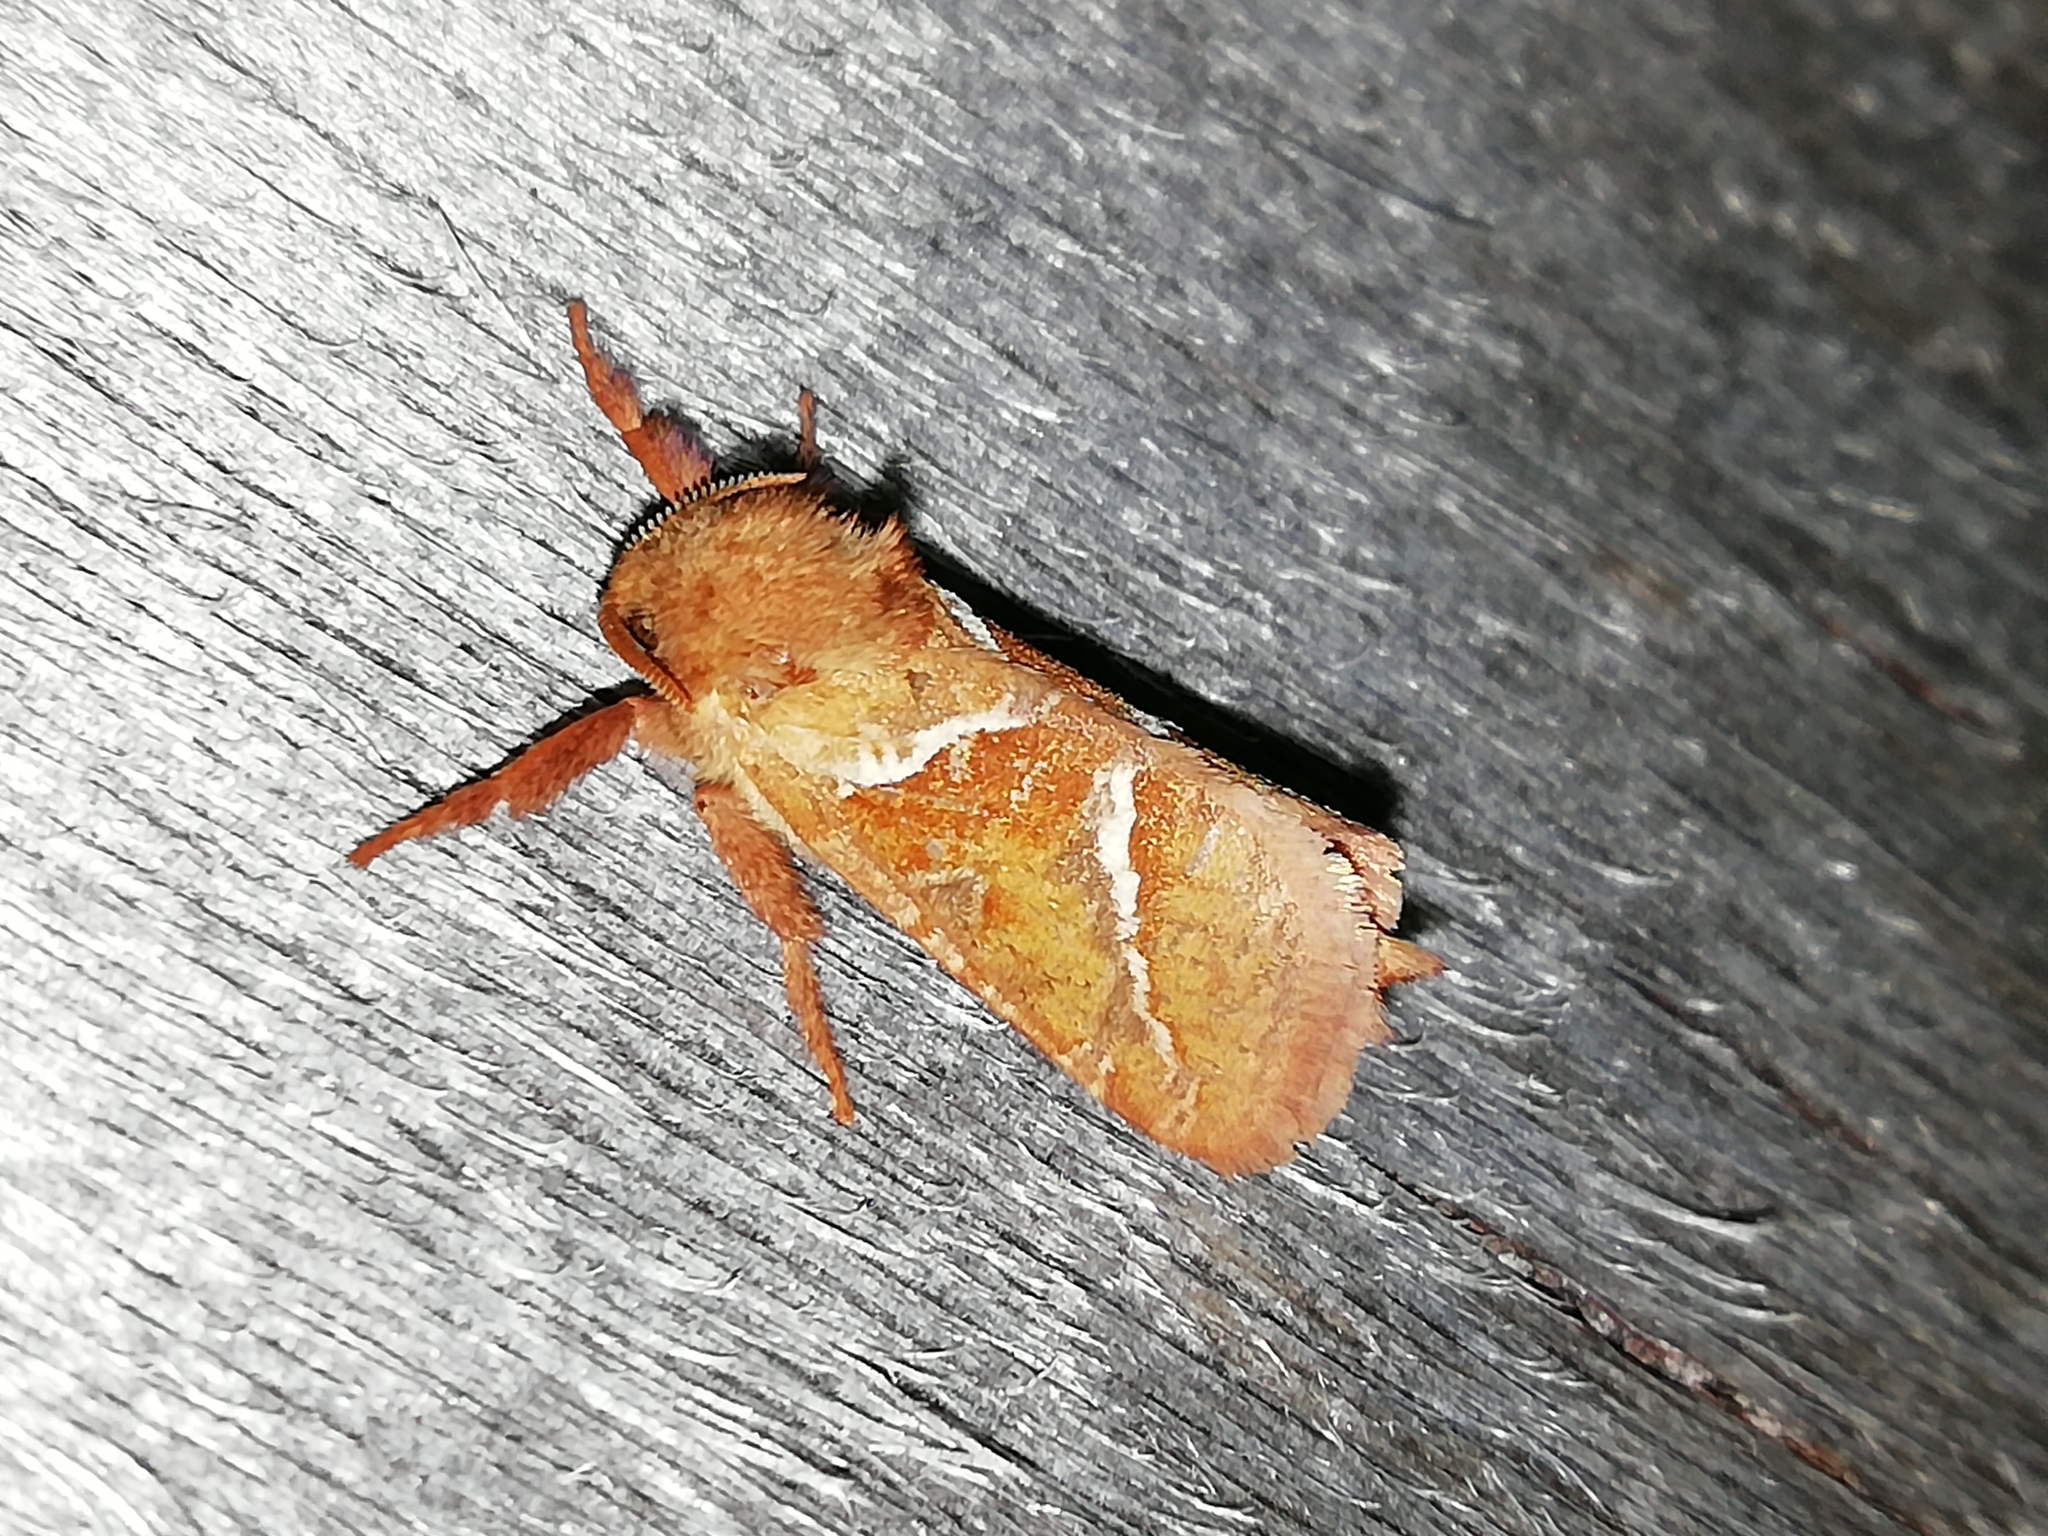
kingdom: Animalia
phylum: Arthropoda
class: Insecta
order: Lepidoptera
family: Hepialidae
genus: Triodia
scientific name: Triodia sylvina
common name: Orange swift
